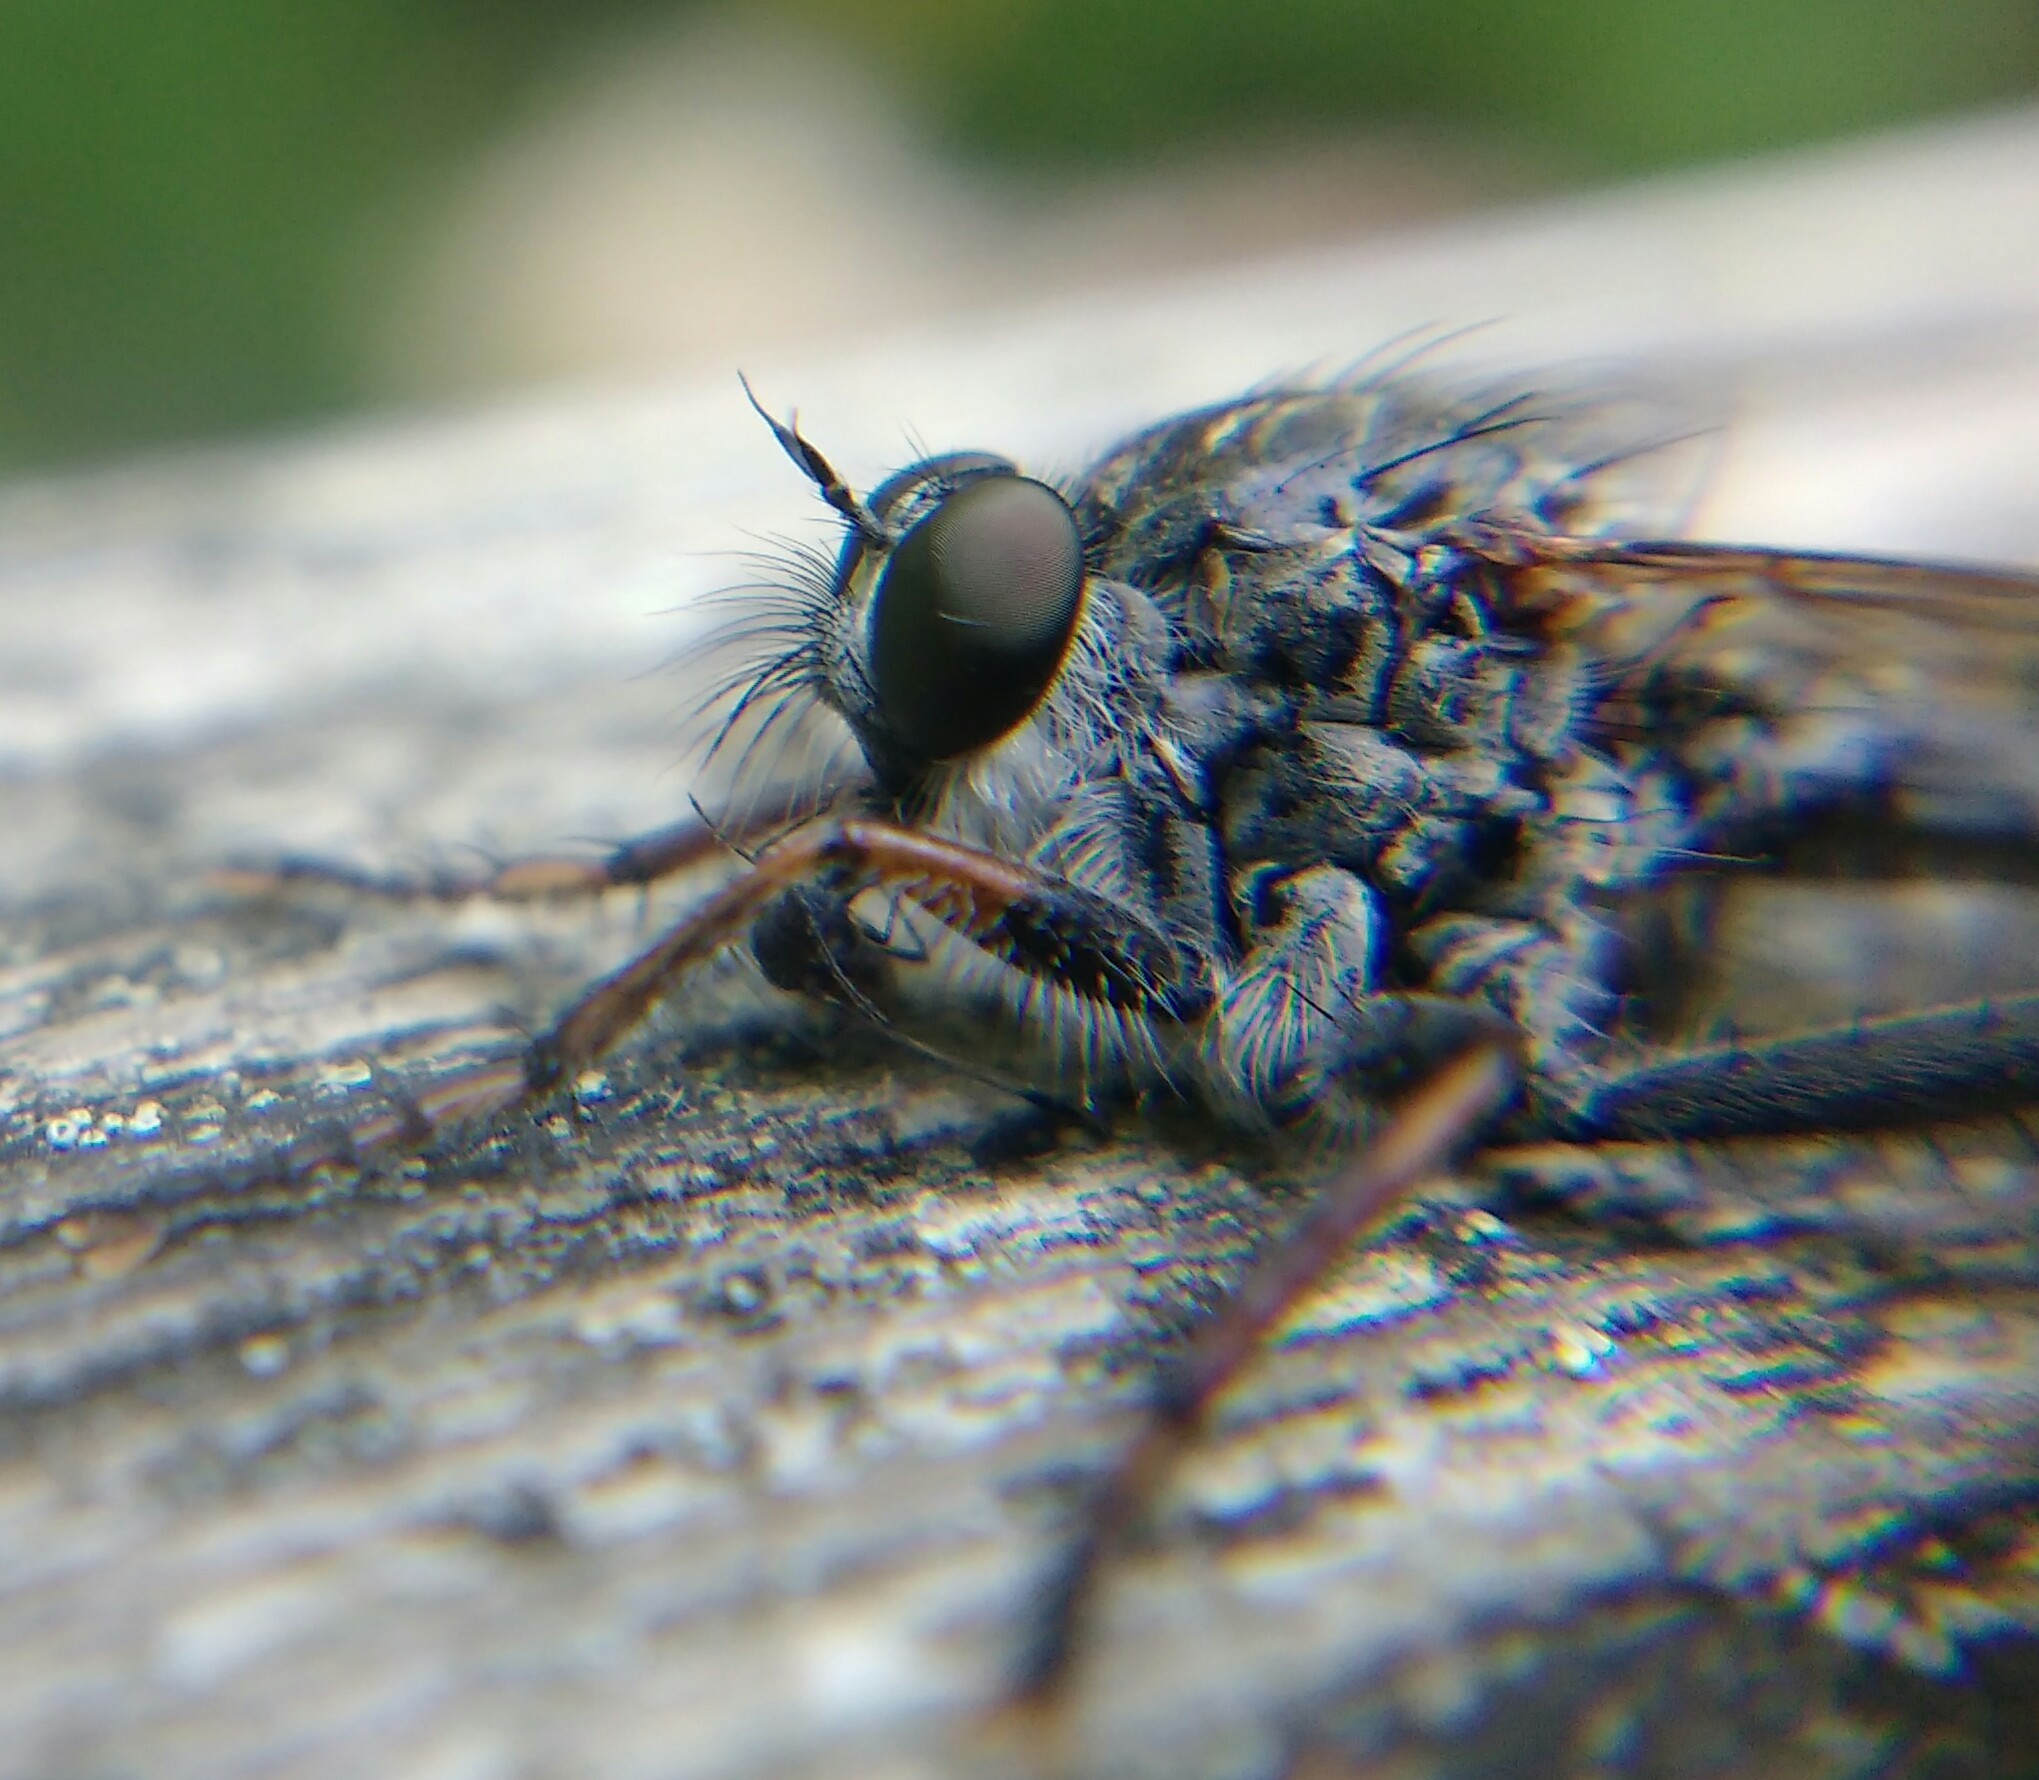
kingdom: Animalia
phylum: Arthropoda
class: Insecta
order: Diptera
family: Asilidae
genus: Machimus
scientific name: Machimus atricapillus
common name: Kite-tailed robberfly
